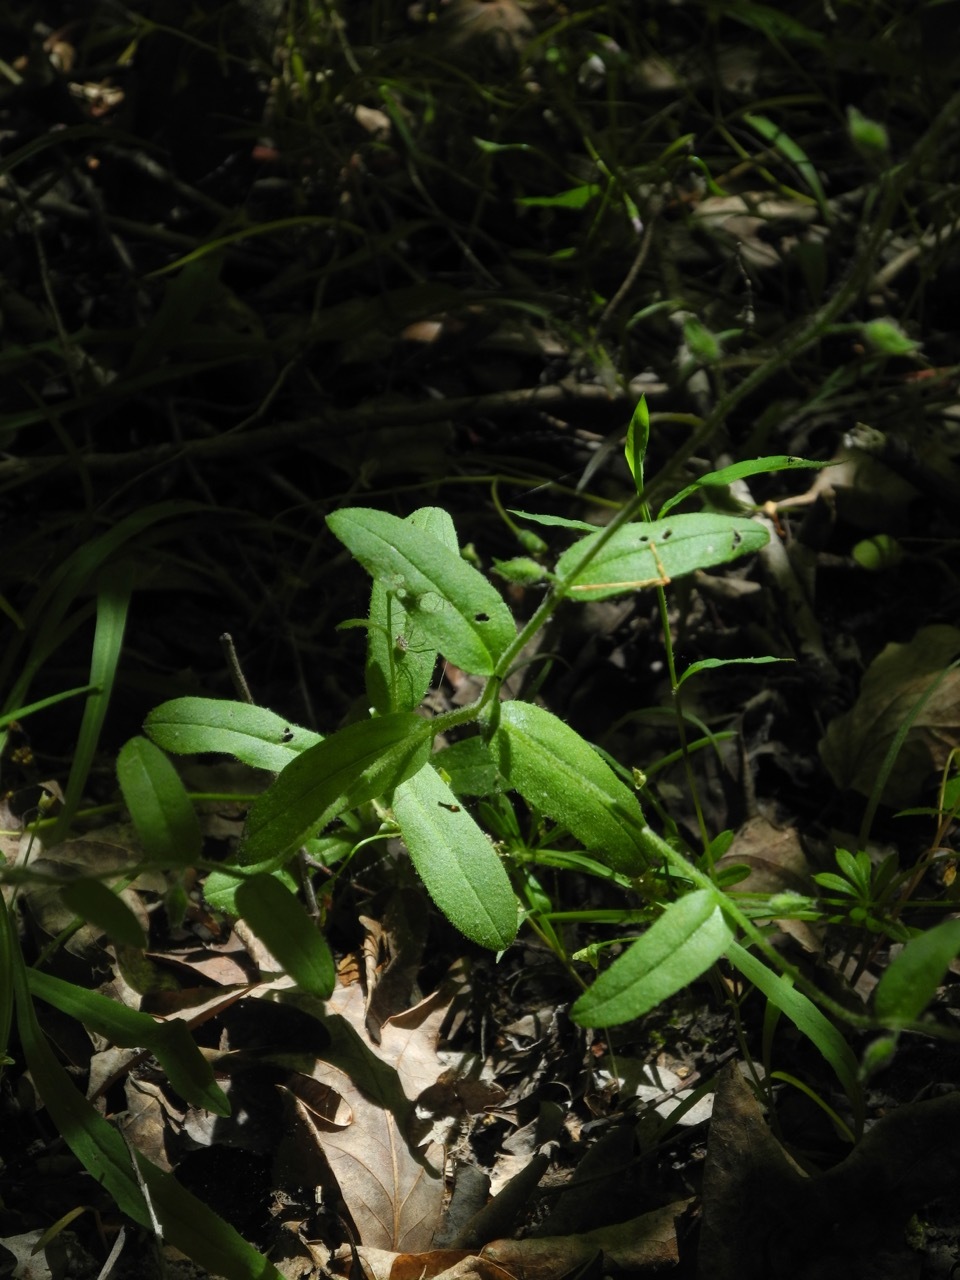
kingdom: Plantae
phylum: Tracheophyta
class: Magnoliopsida
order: Boraginales
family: Boraginaceae
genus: Myosotis
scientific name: Myosotis verna
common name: Early forget-me-not
